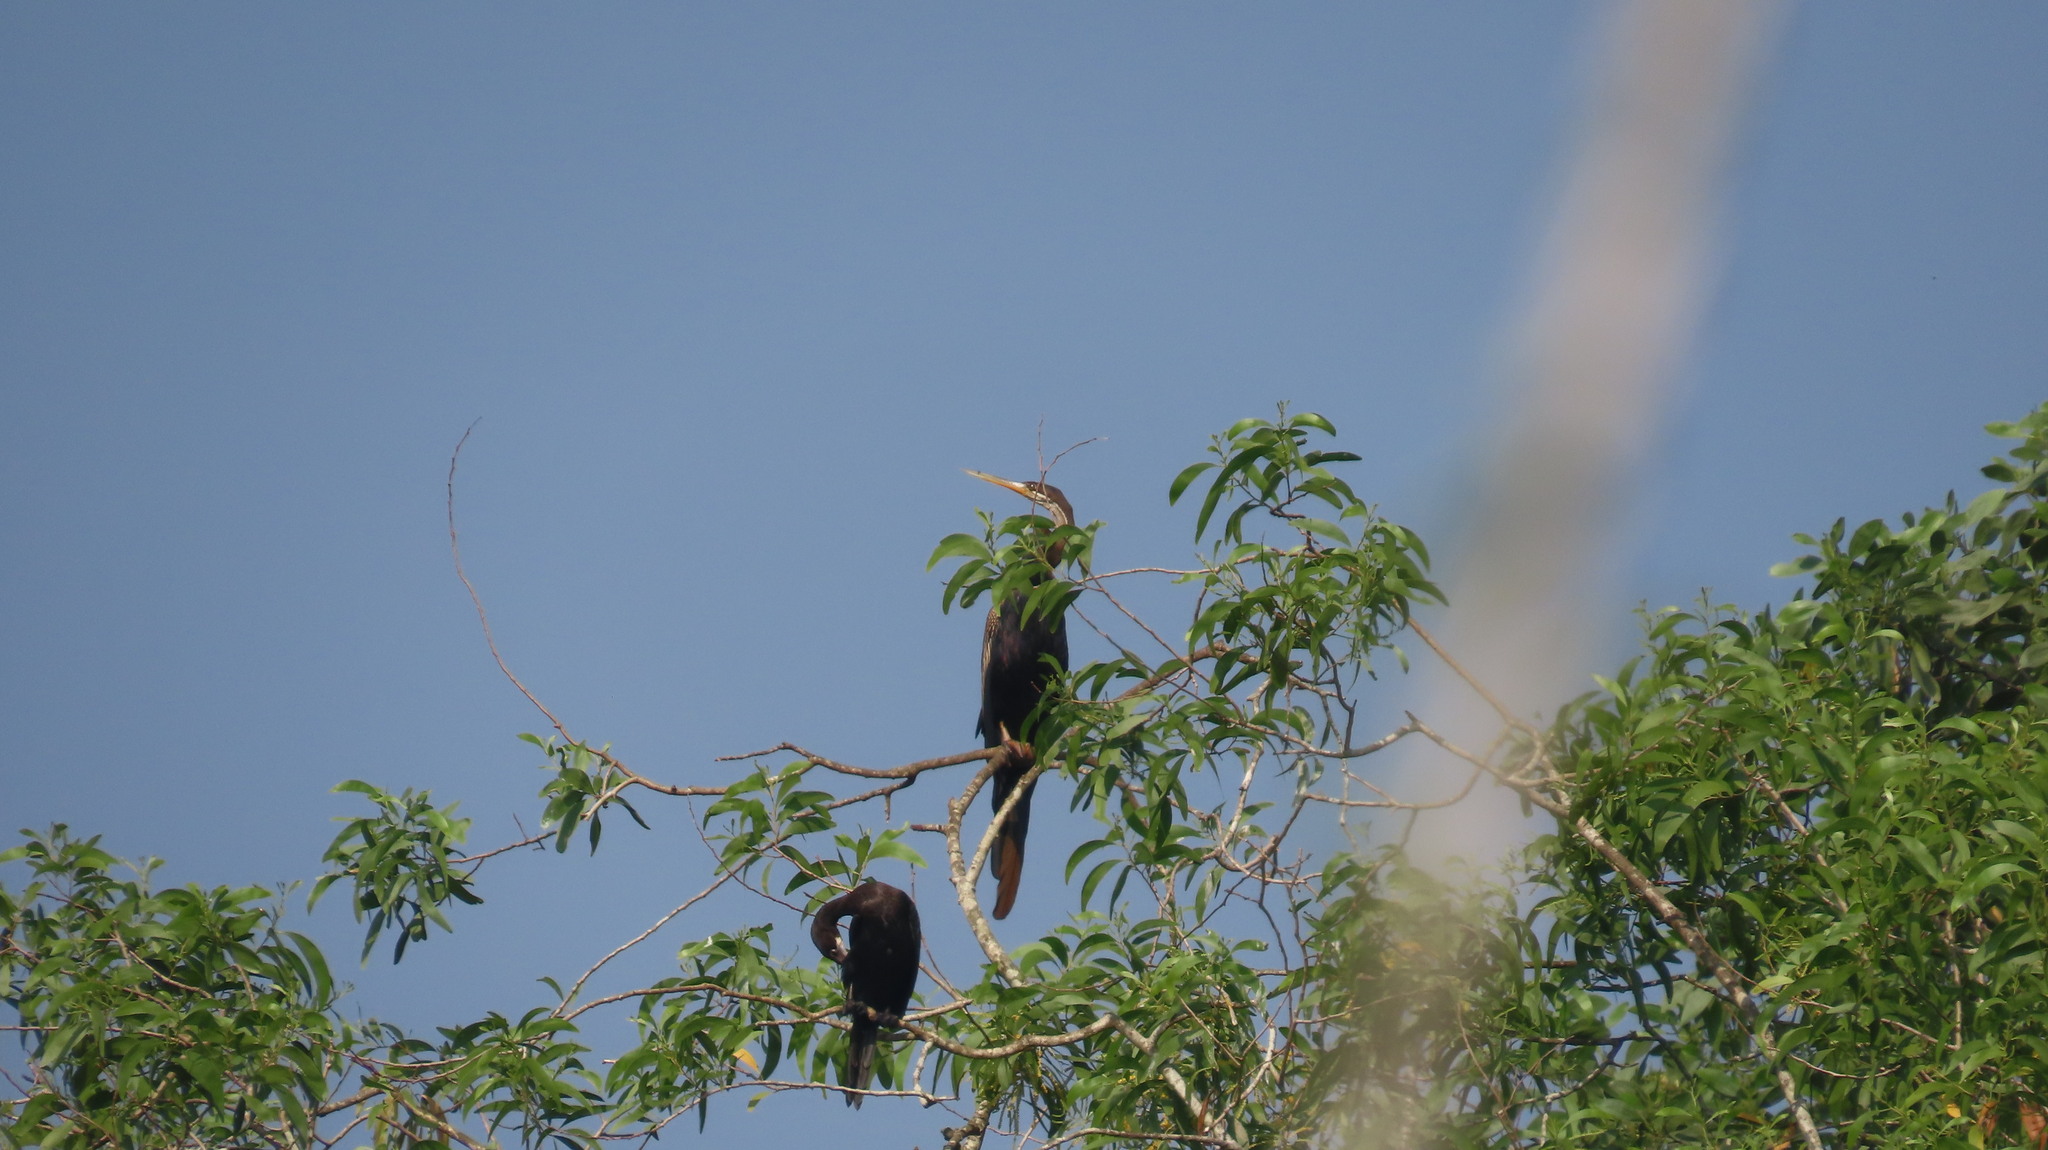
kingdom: Animalia
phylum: Chordata
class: Aves
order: Suliformes
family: Anhingidae
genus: Anhinga
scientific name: Anhinga melanogaster
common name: Oriental darter
